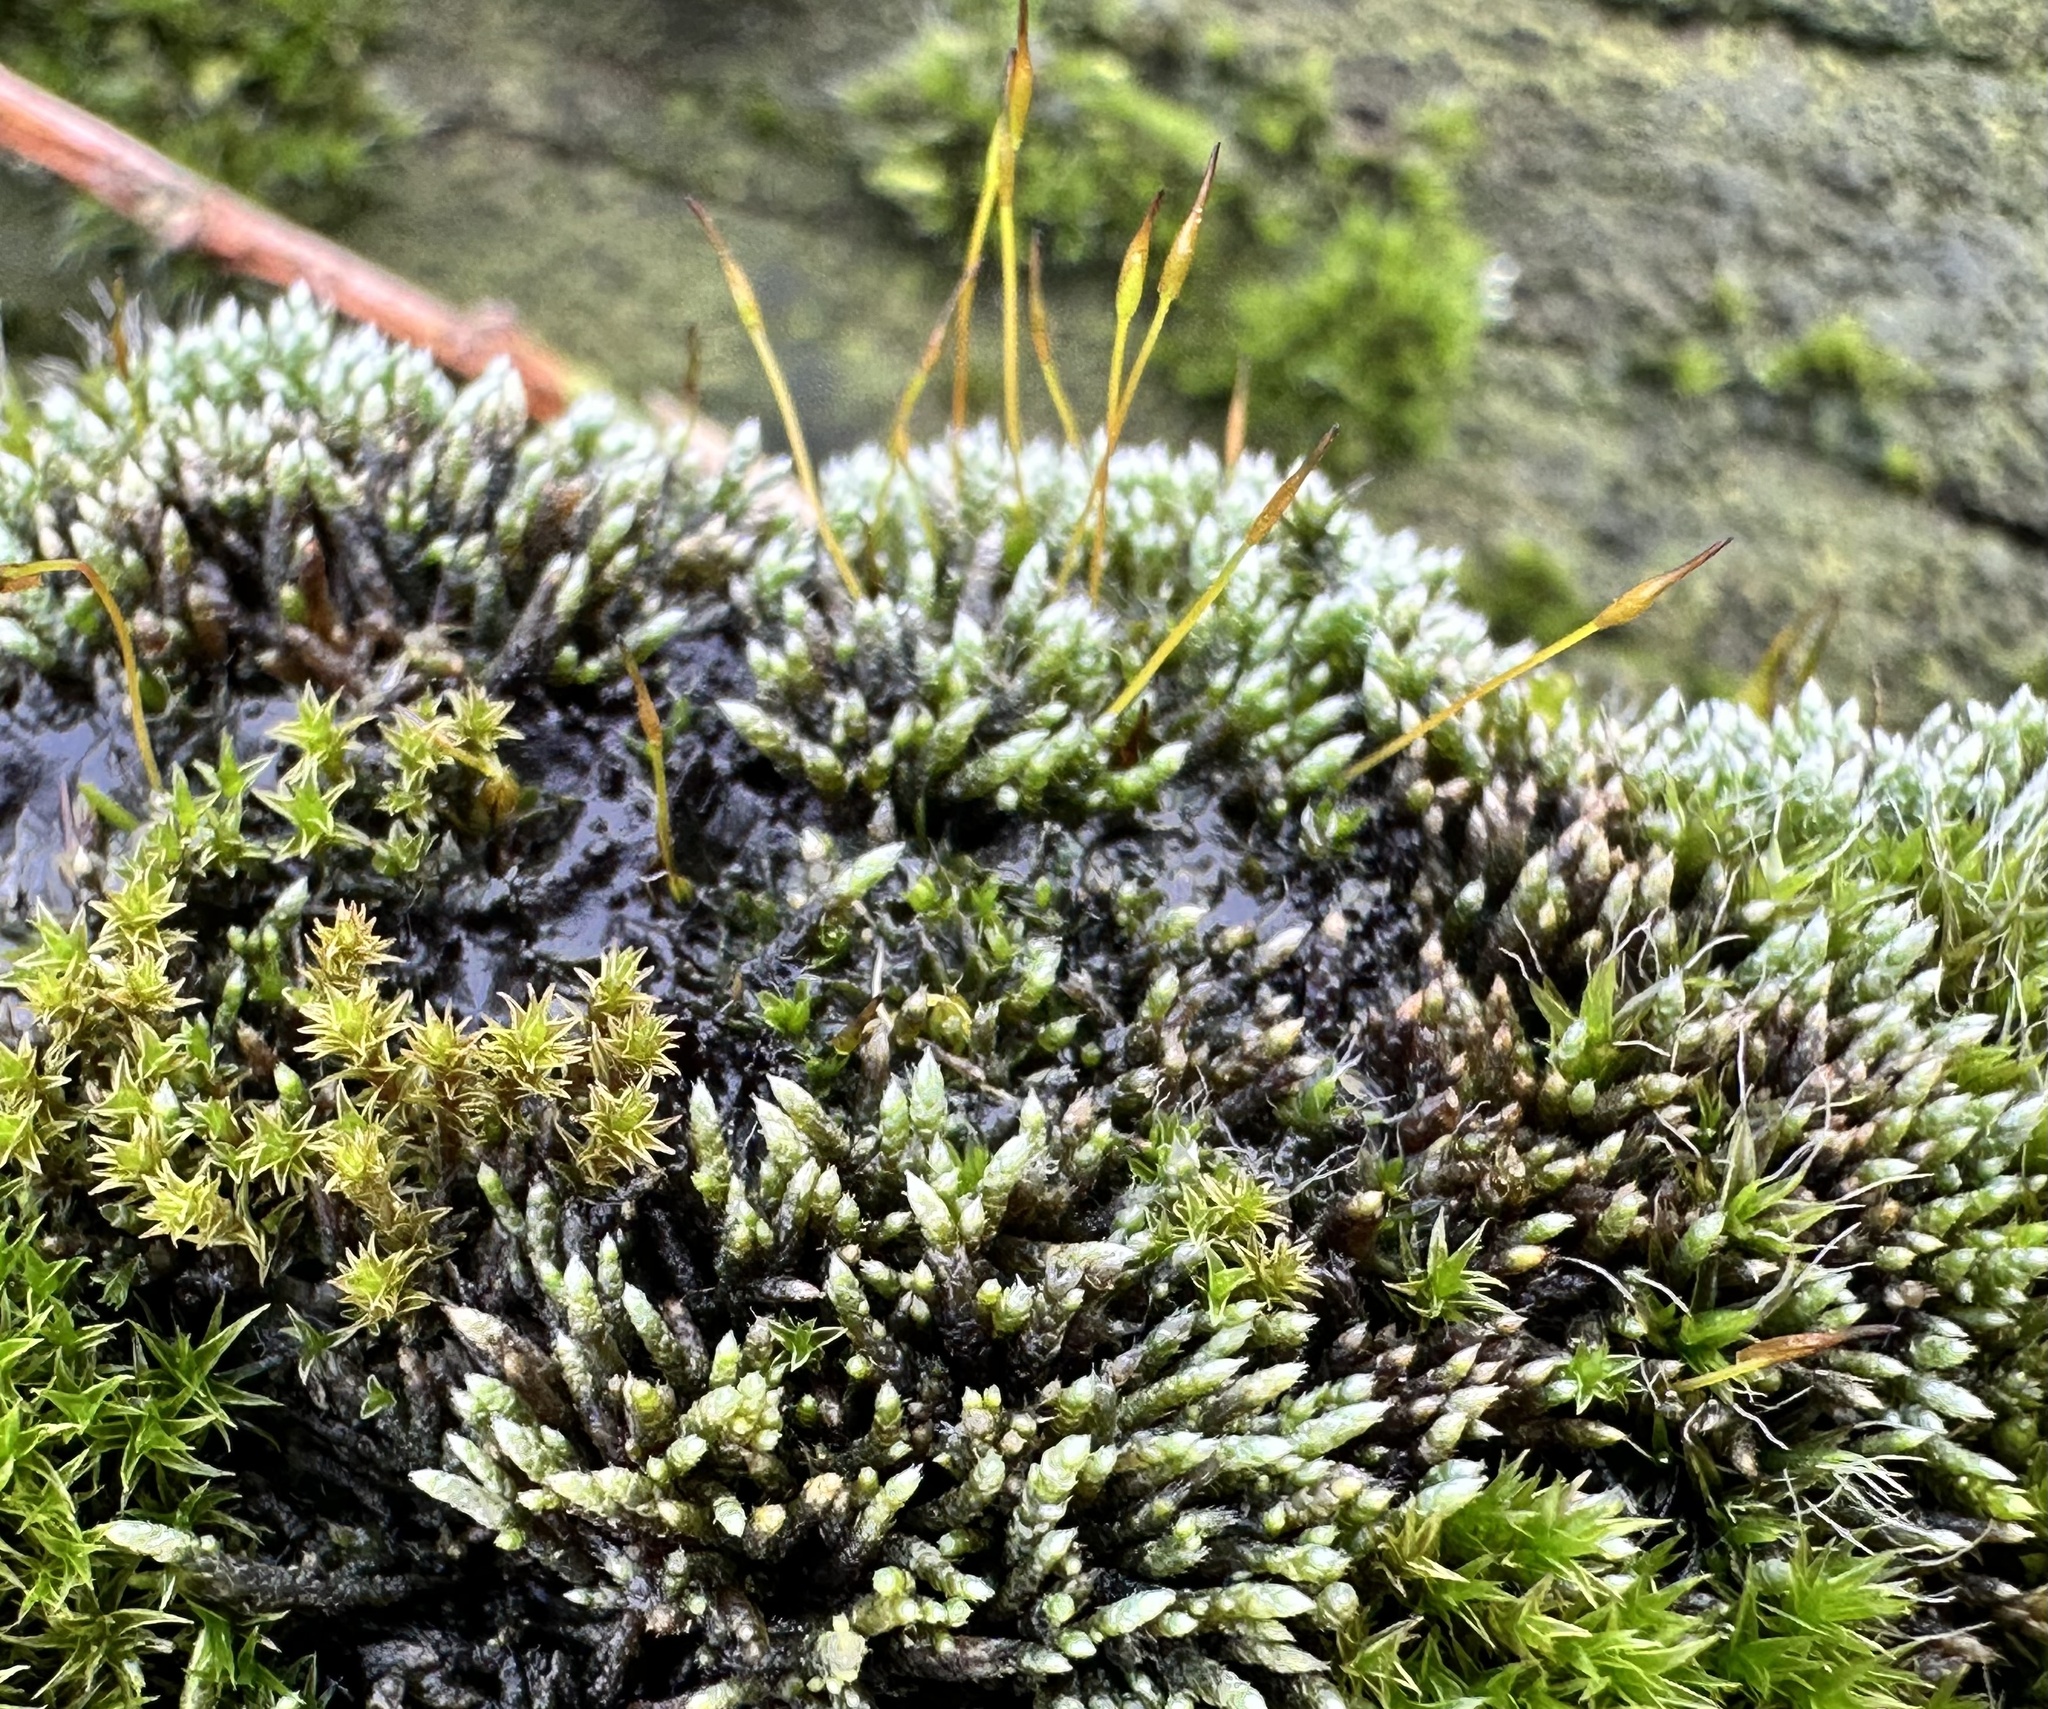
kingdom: Plantae
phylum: Bryophyta
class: Bryopsida
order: Bryales
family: Bryaceae
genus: Bryum
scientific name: Bryum argenteum
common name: Silver-moss
